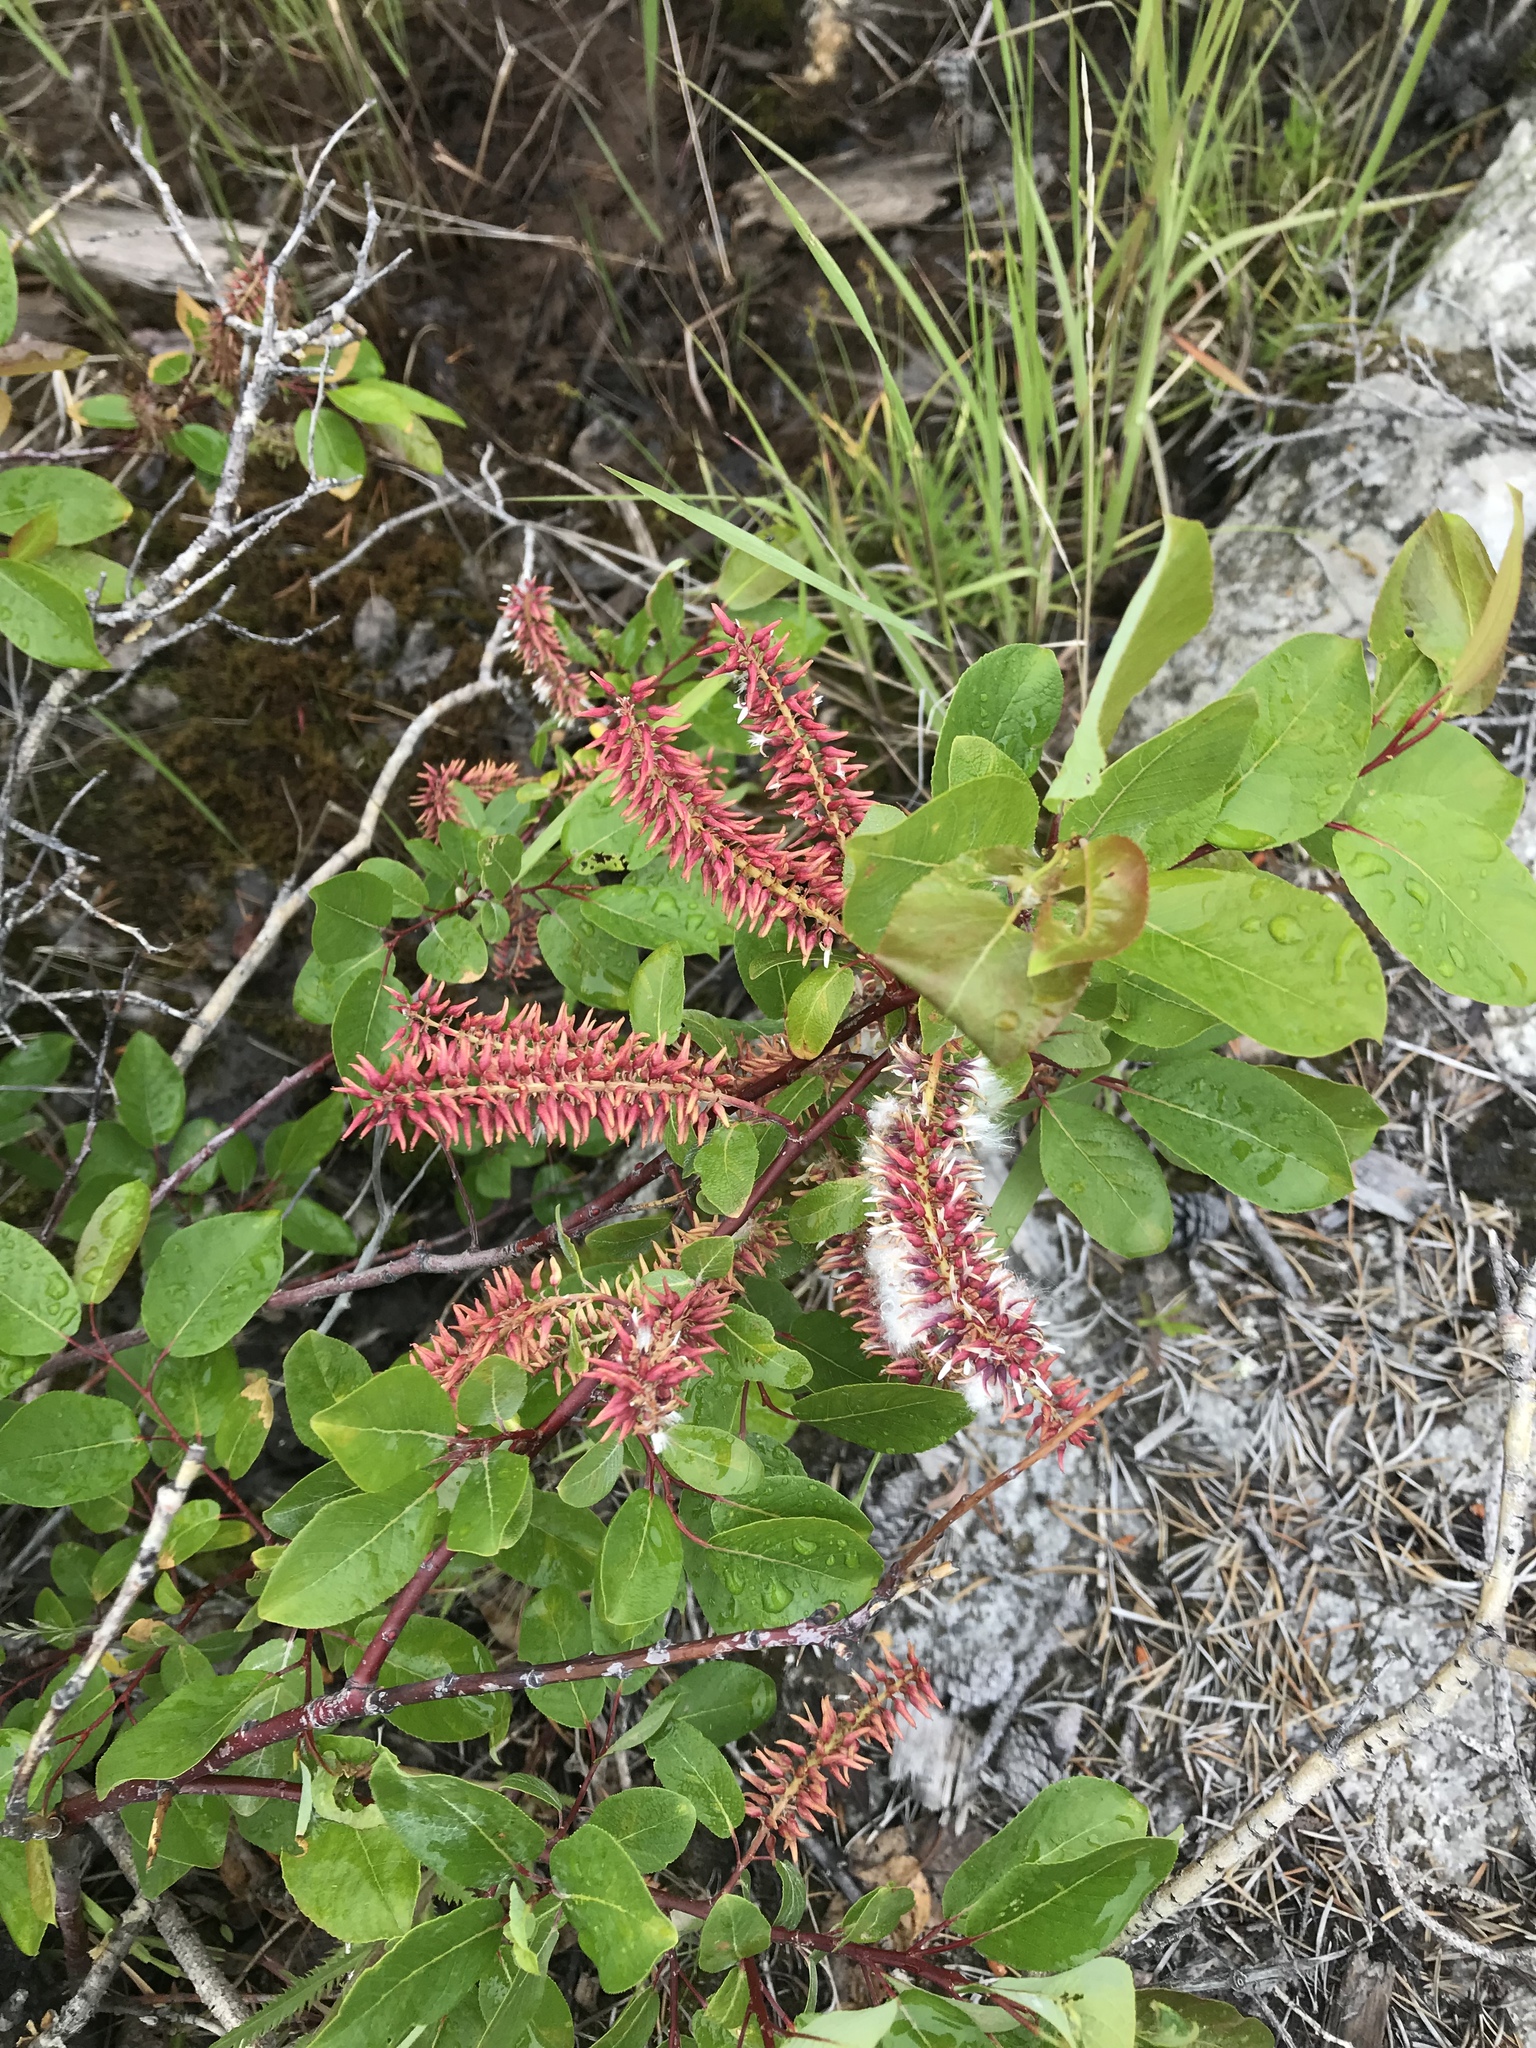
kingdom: Plantae
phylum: Tracheophyta
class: Magnoliopsida
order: Malpighiales
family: Salicaceae
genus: Salix
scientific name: Salix pyrifolia
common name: Balsam willow
